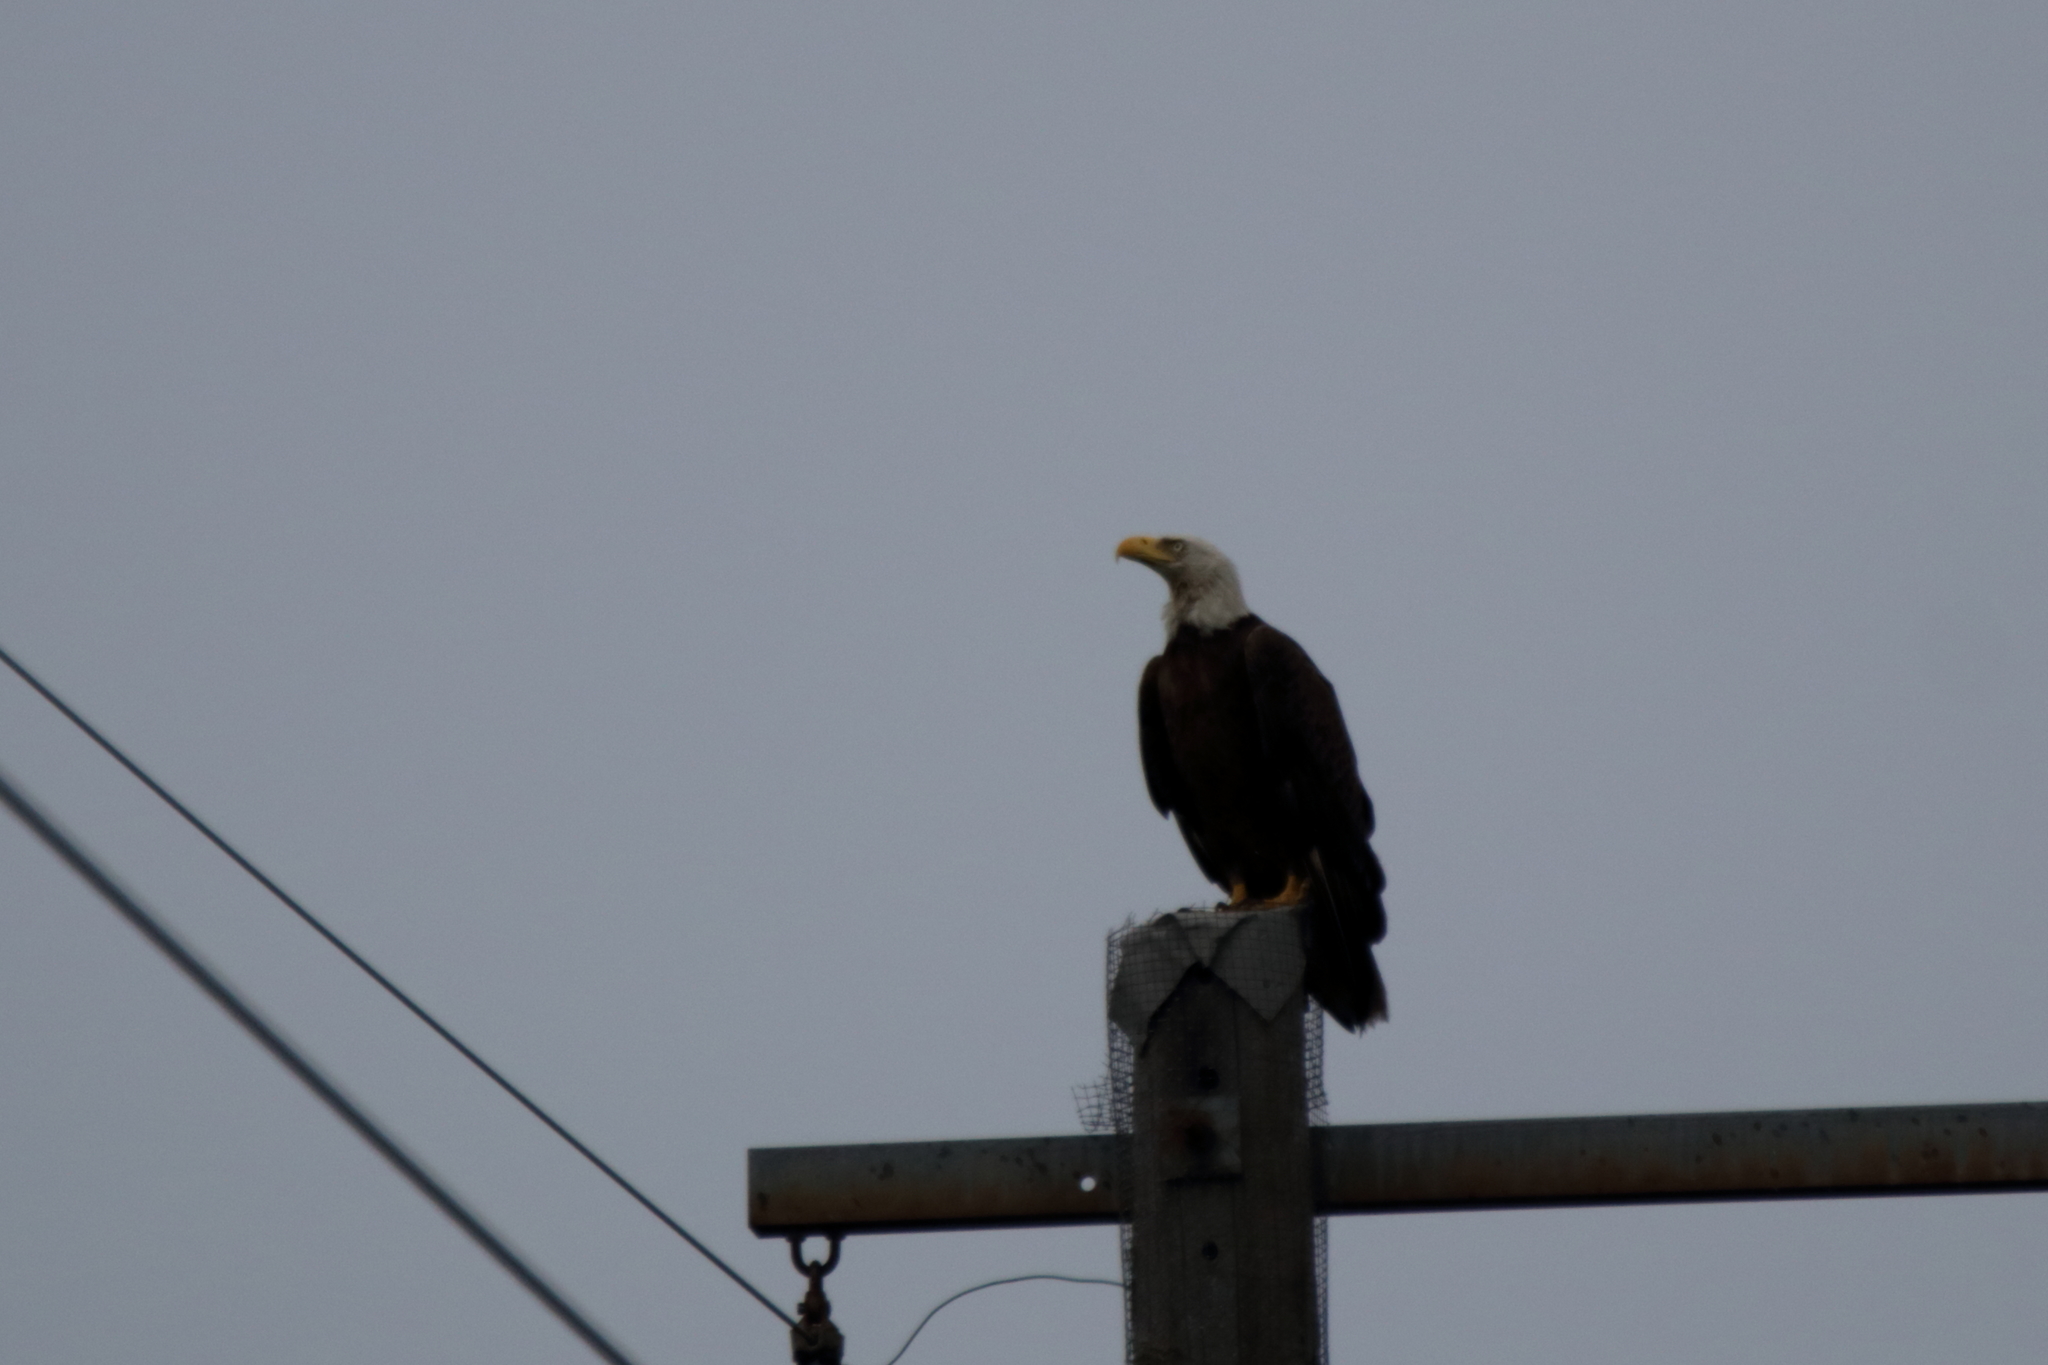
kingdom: Animalia
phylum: Chordata
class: Aves
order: Accipitriformes
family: Accipitridae
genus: Haliaeetus
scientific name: Haliaeetus leucocephalus
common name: Bald eagle
